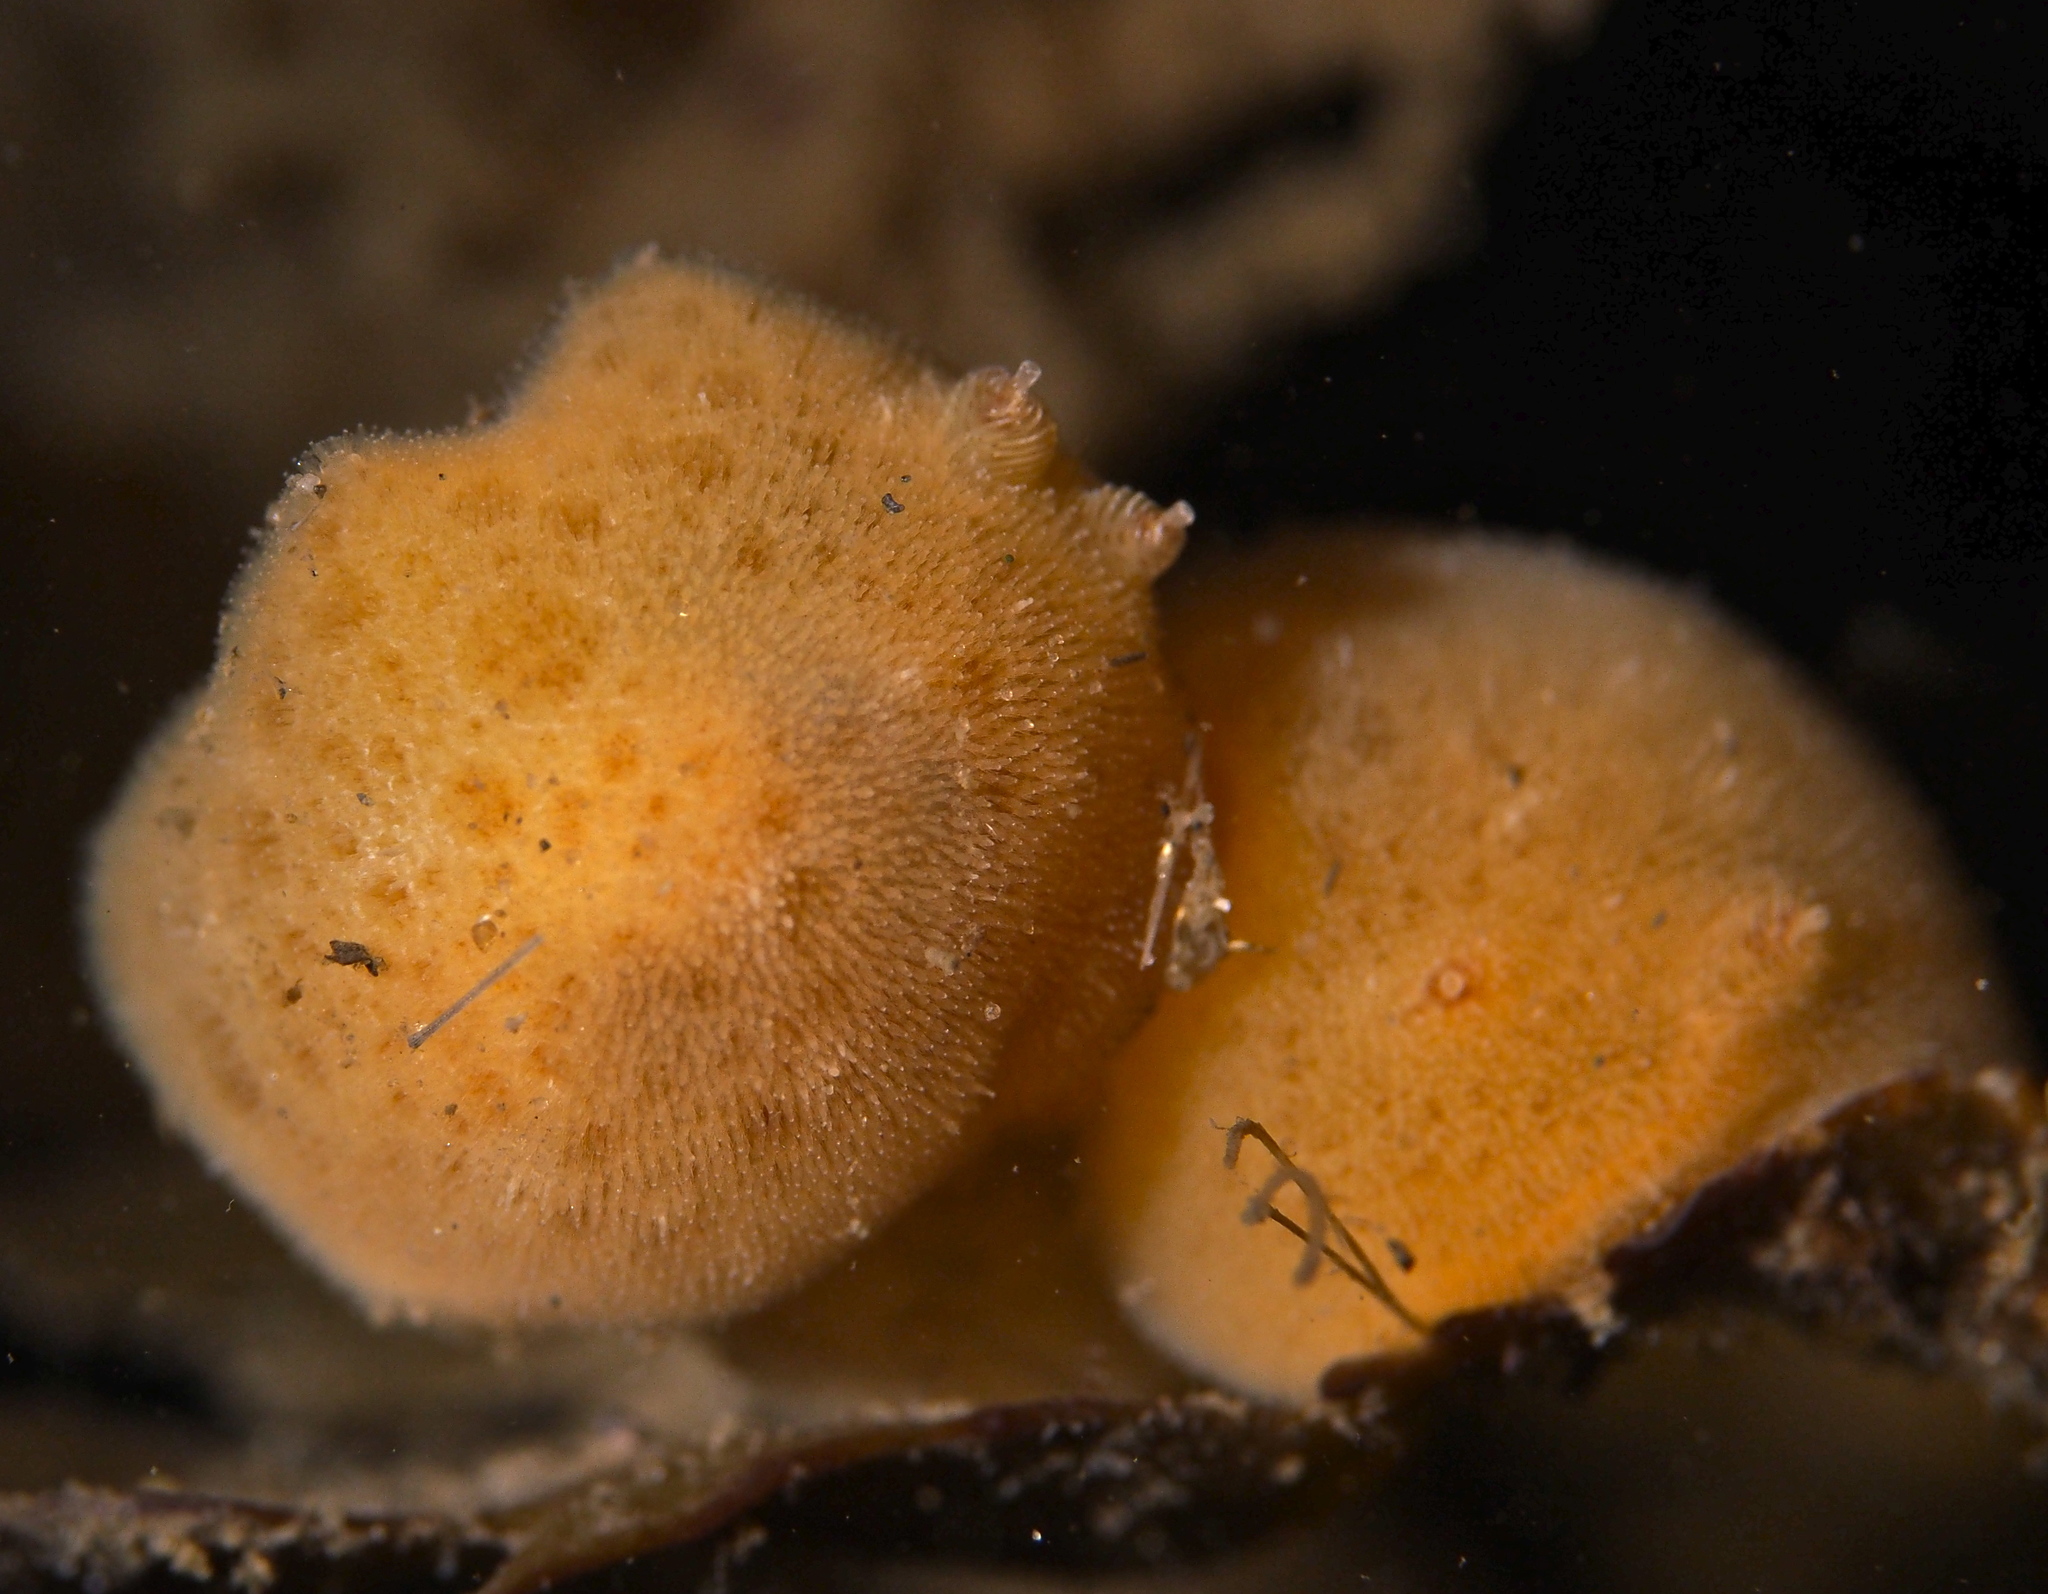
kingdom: Animalia
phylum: Mollusca
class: Gastropoda
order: Nudibranchia
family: Discodorididae
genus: Jorunna
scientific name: Jorunna tomentosa
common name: Grey sea slug
